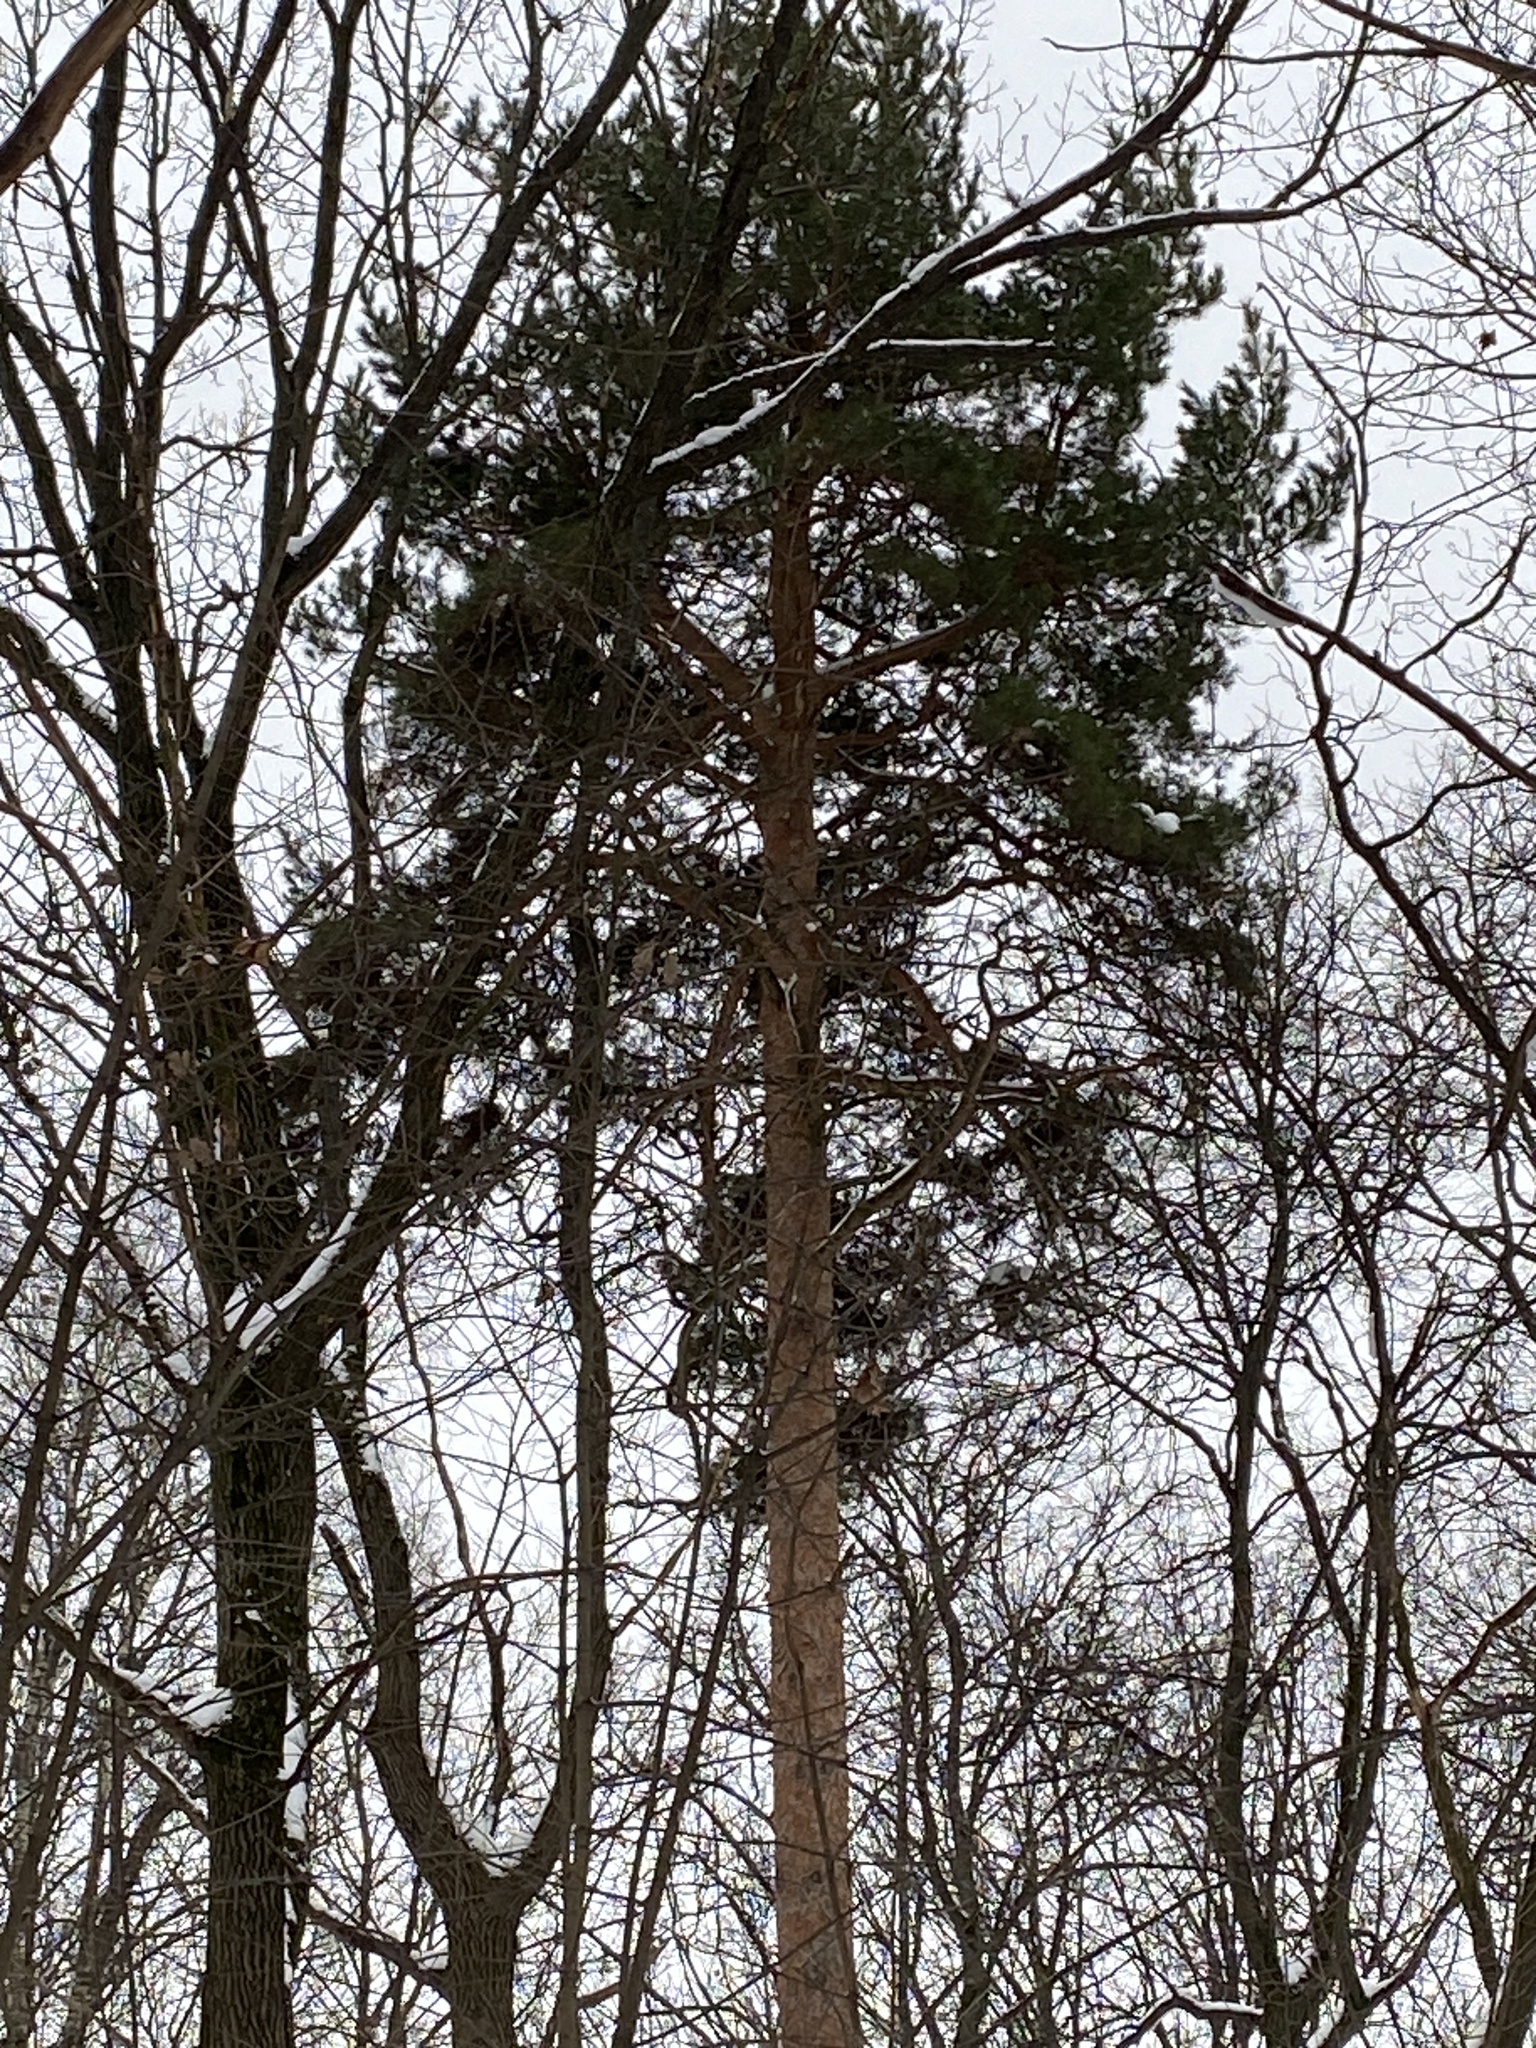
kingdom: Plantae
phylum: Tracheophyta
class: Pinopsida
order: Pinales
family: Pinaceae
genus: Pinus
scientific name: Pinus sylvestris
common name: Scots pine
